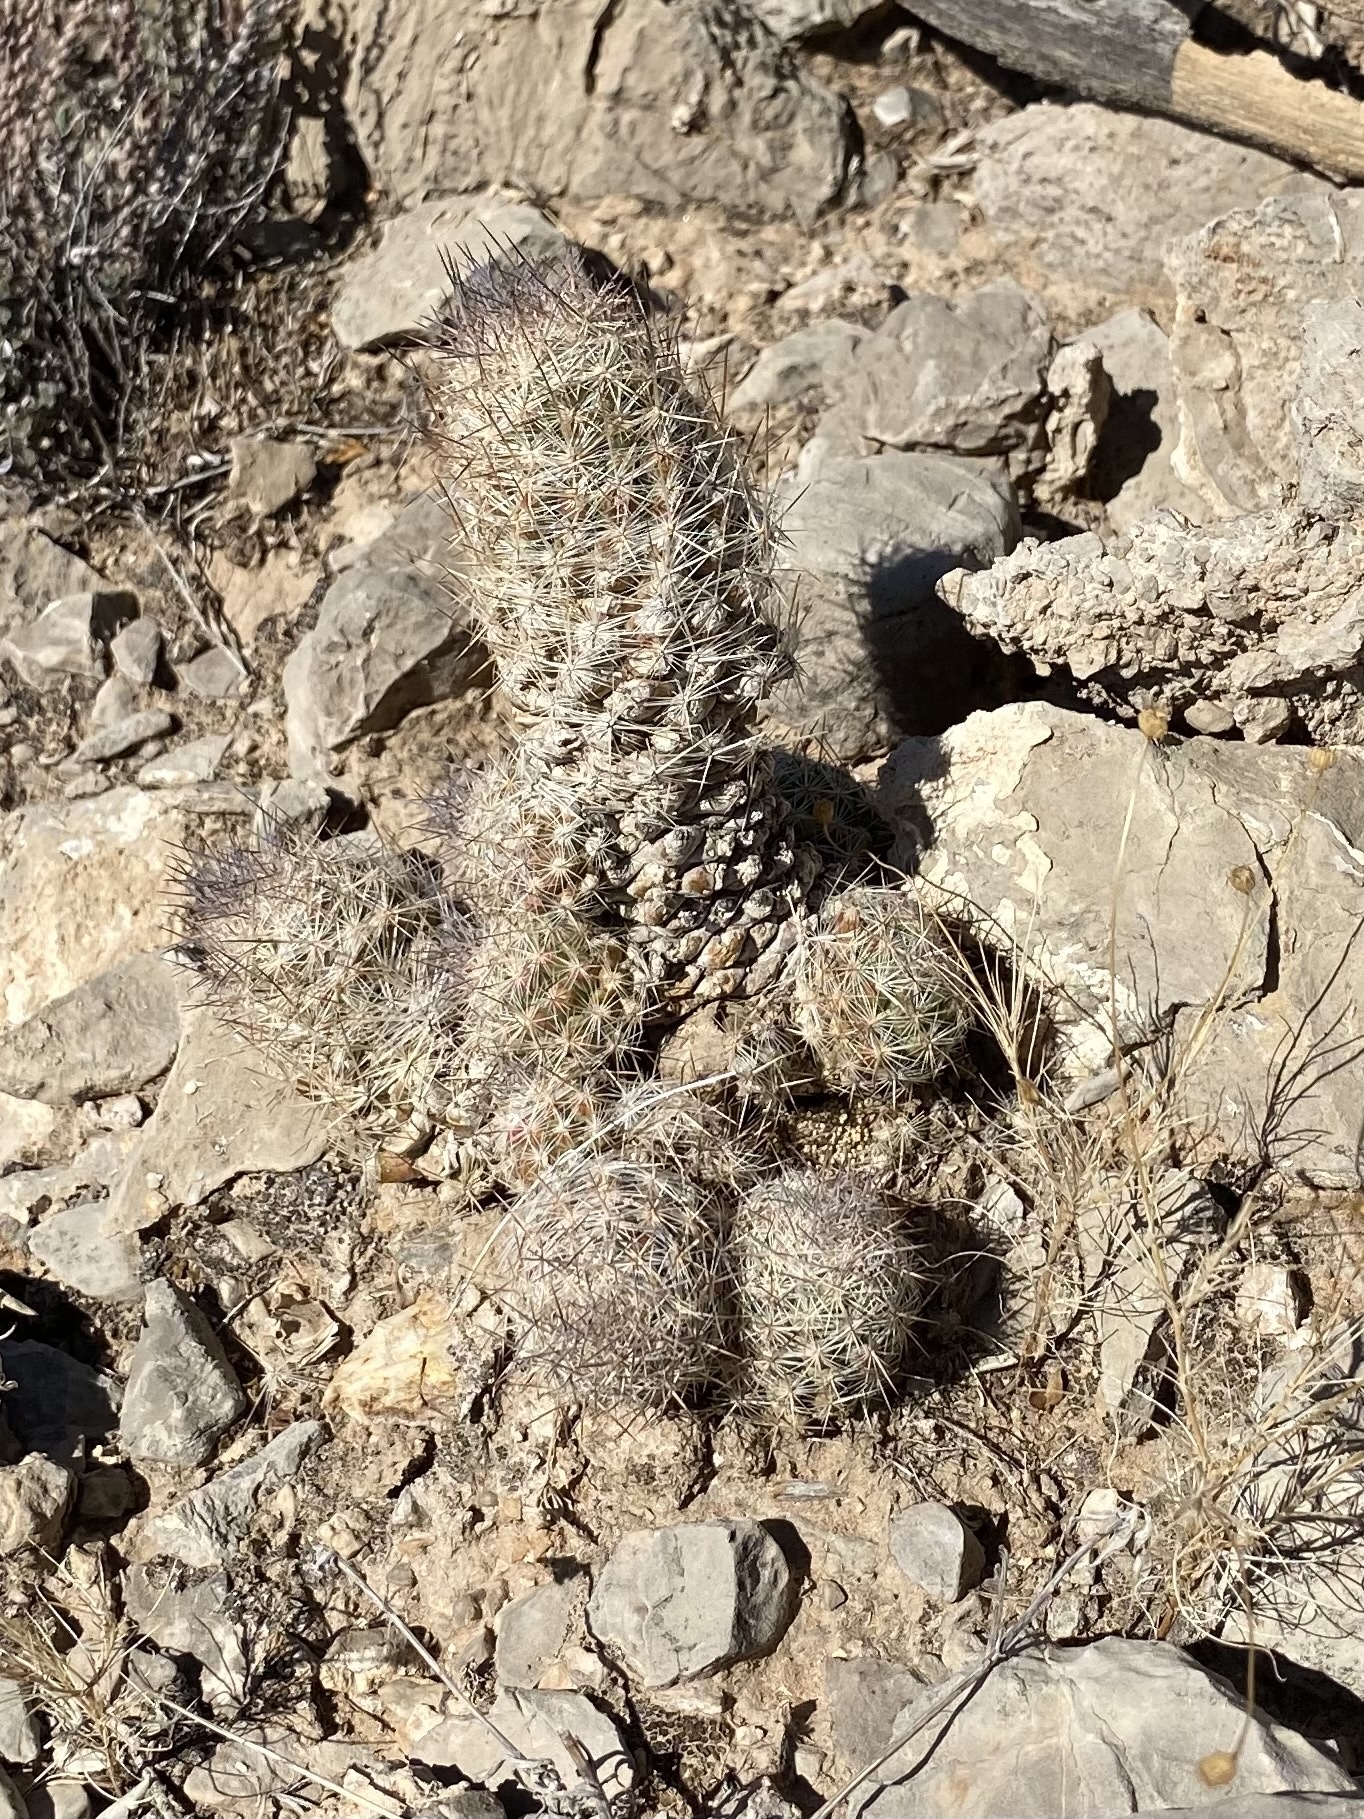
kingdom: Plantae
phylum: Tracheophyta
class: Magnoliopsida
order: Caryophyllales
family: Cactaceae
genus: Pelecyphora
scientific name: Pelecyphora tuberculosa
